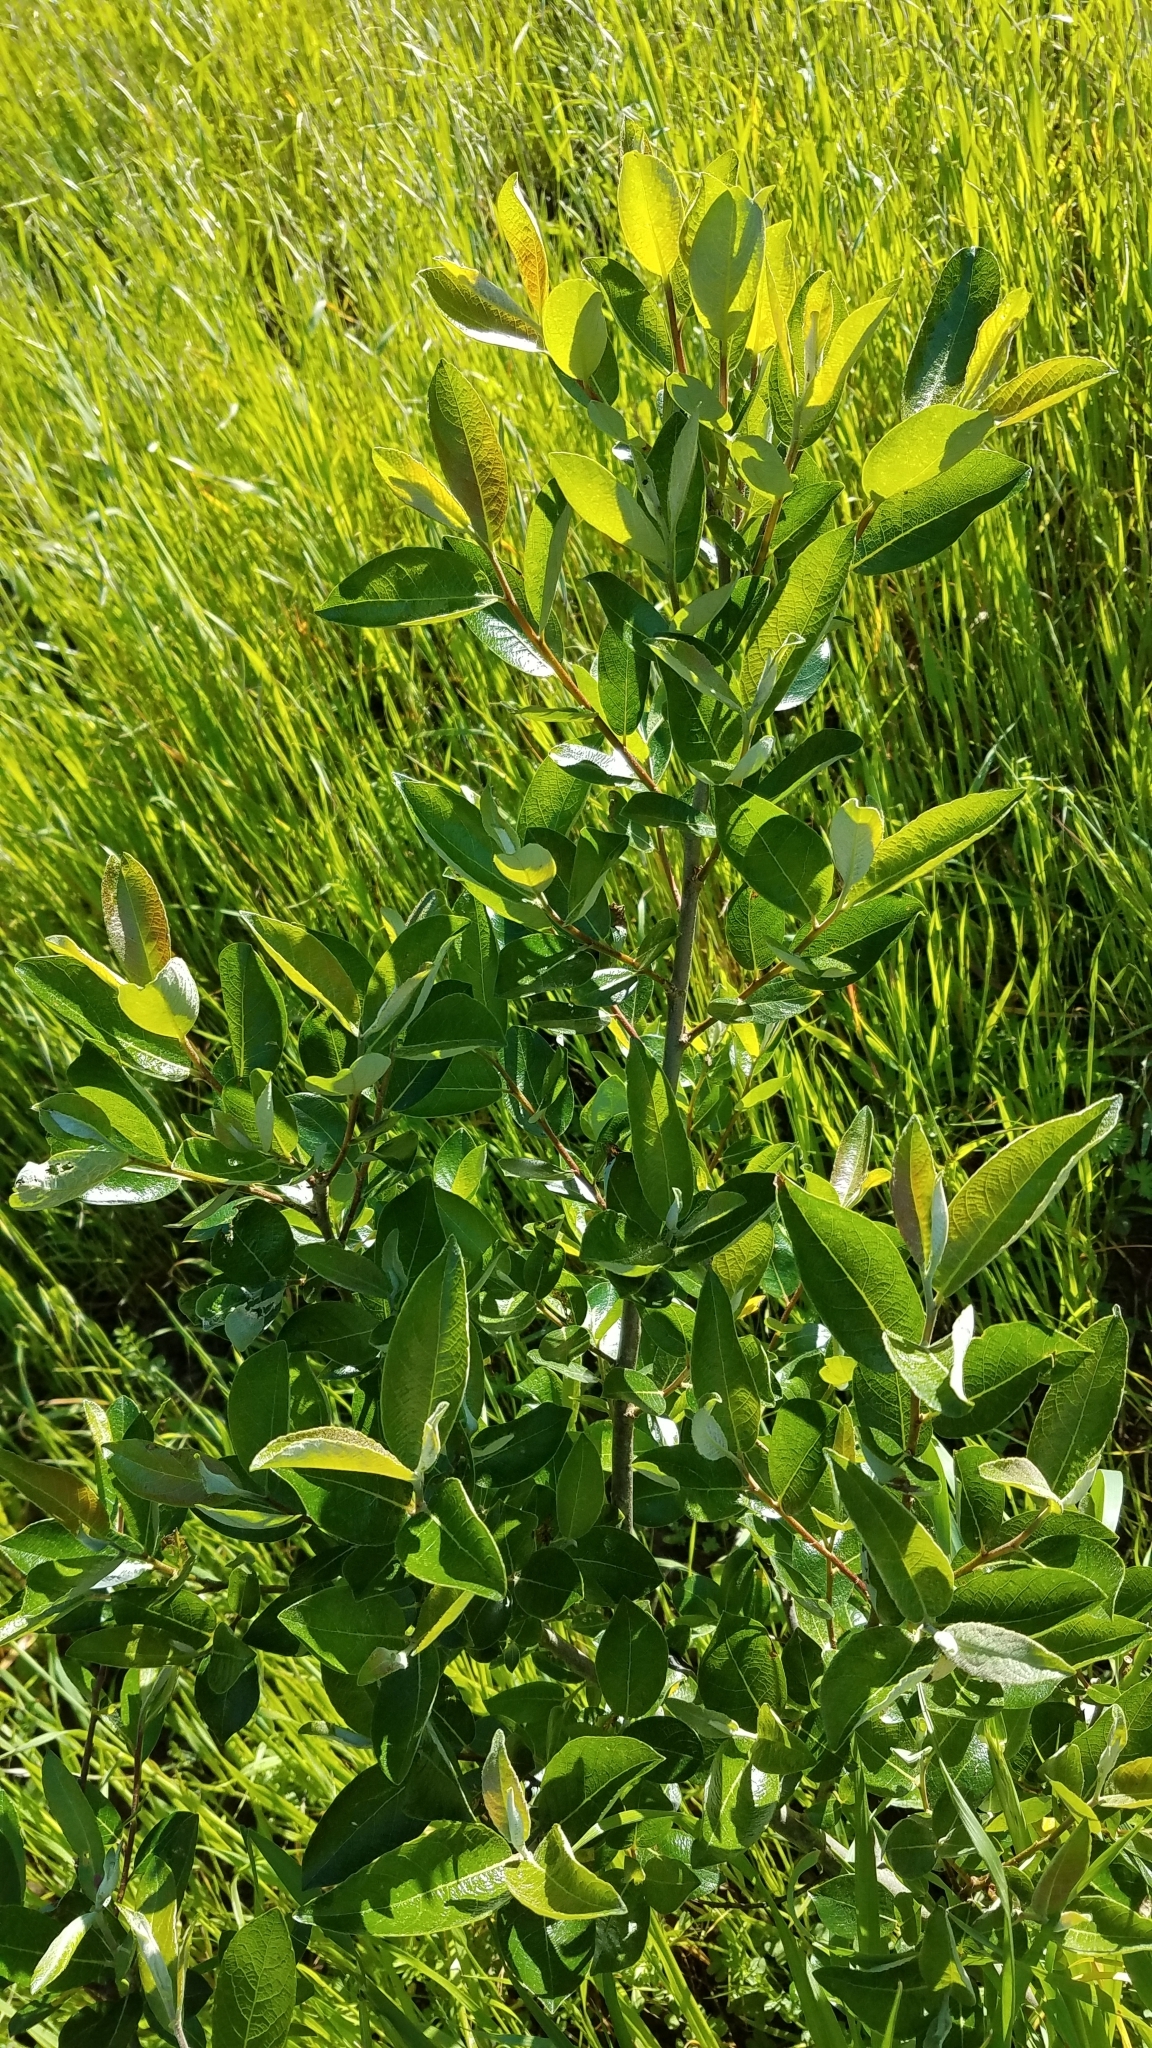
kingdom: Plantae
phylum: Tracheophyta
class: Magnoliopsida
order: Malpighiales
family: Salicaceae
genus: Salix
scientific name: Salix lasiolepis
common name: Arroyo willow
